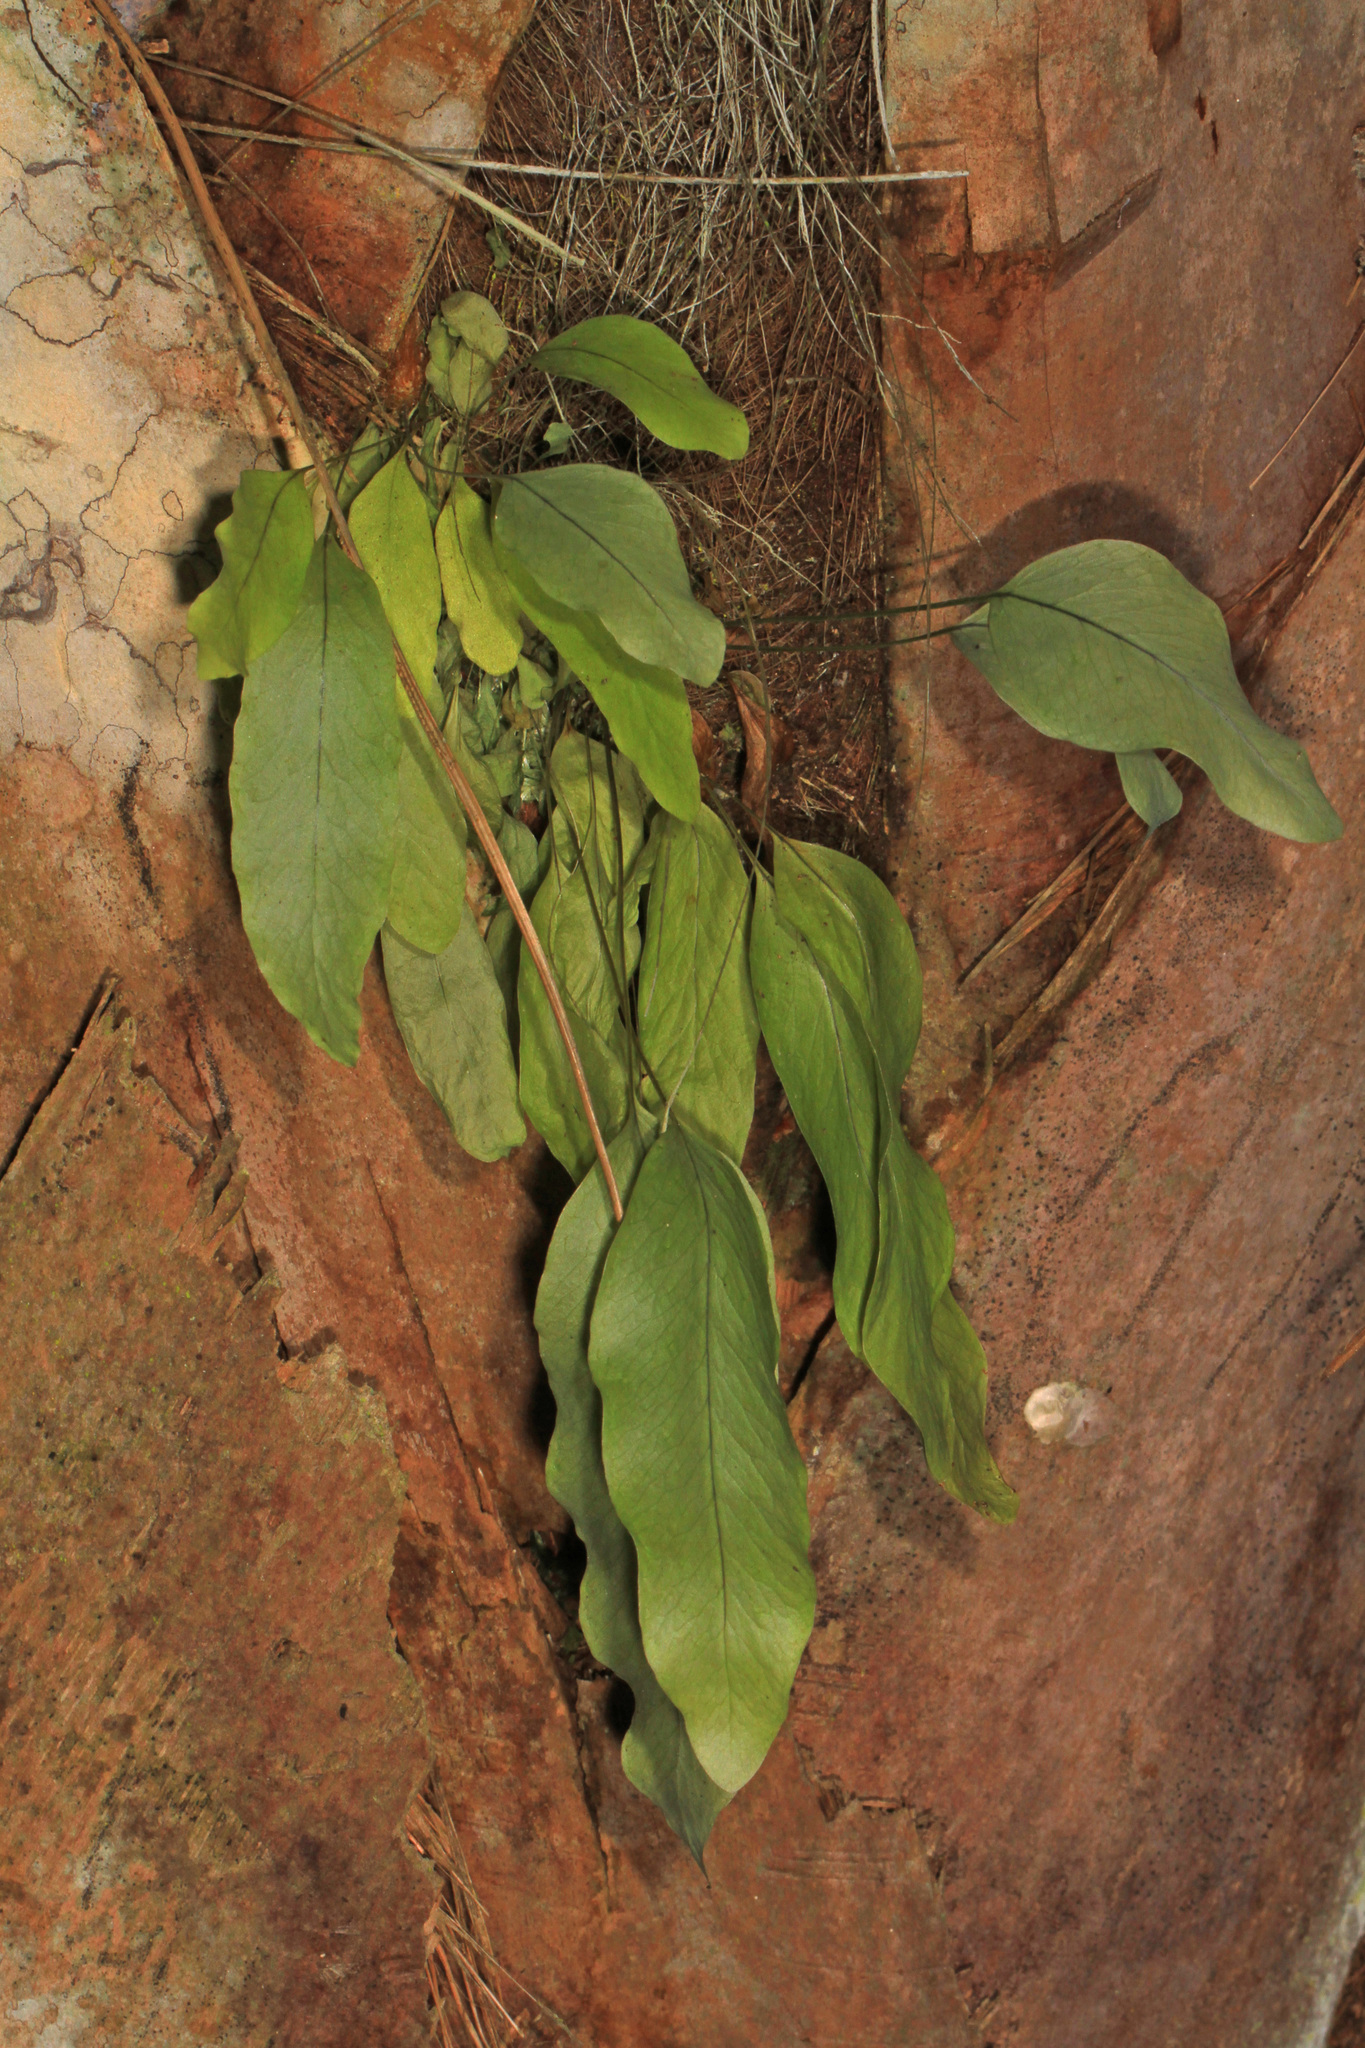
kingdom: Plantae
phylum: Tracheophyta
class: Polypodiopsida
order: Polypodiales
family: Polypodiaceae
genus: Phlebodium
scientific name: Phlebodium aureum
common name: Gold-foot fern
